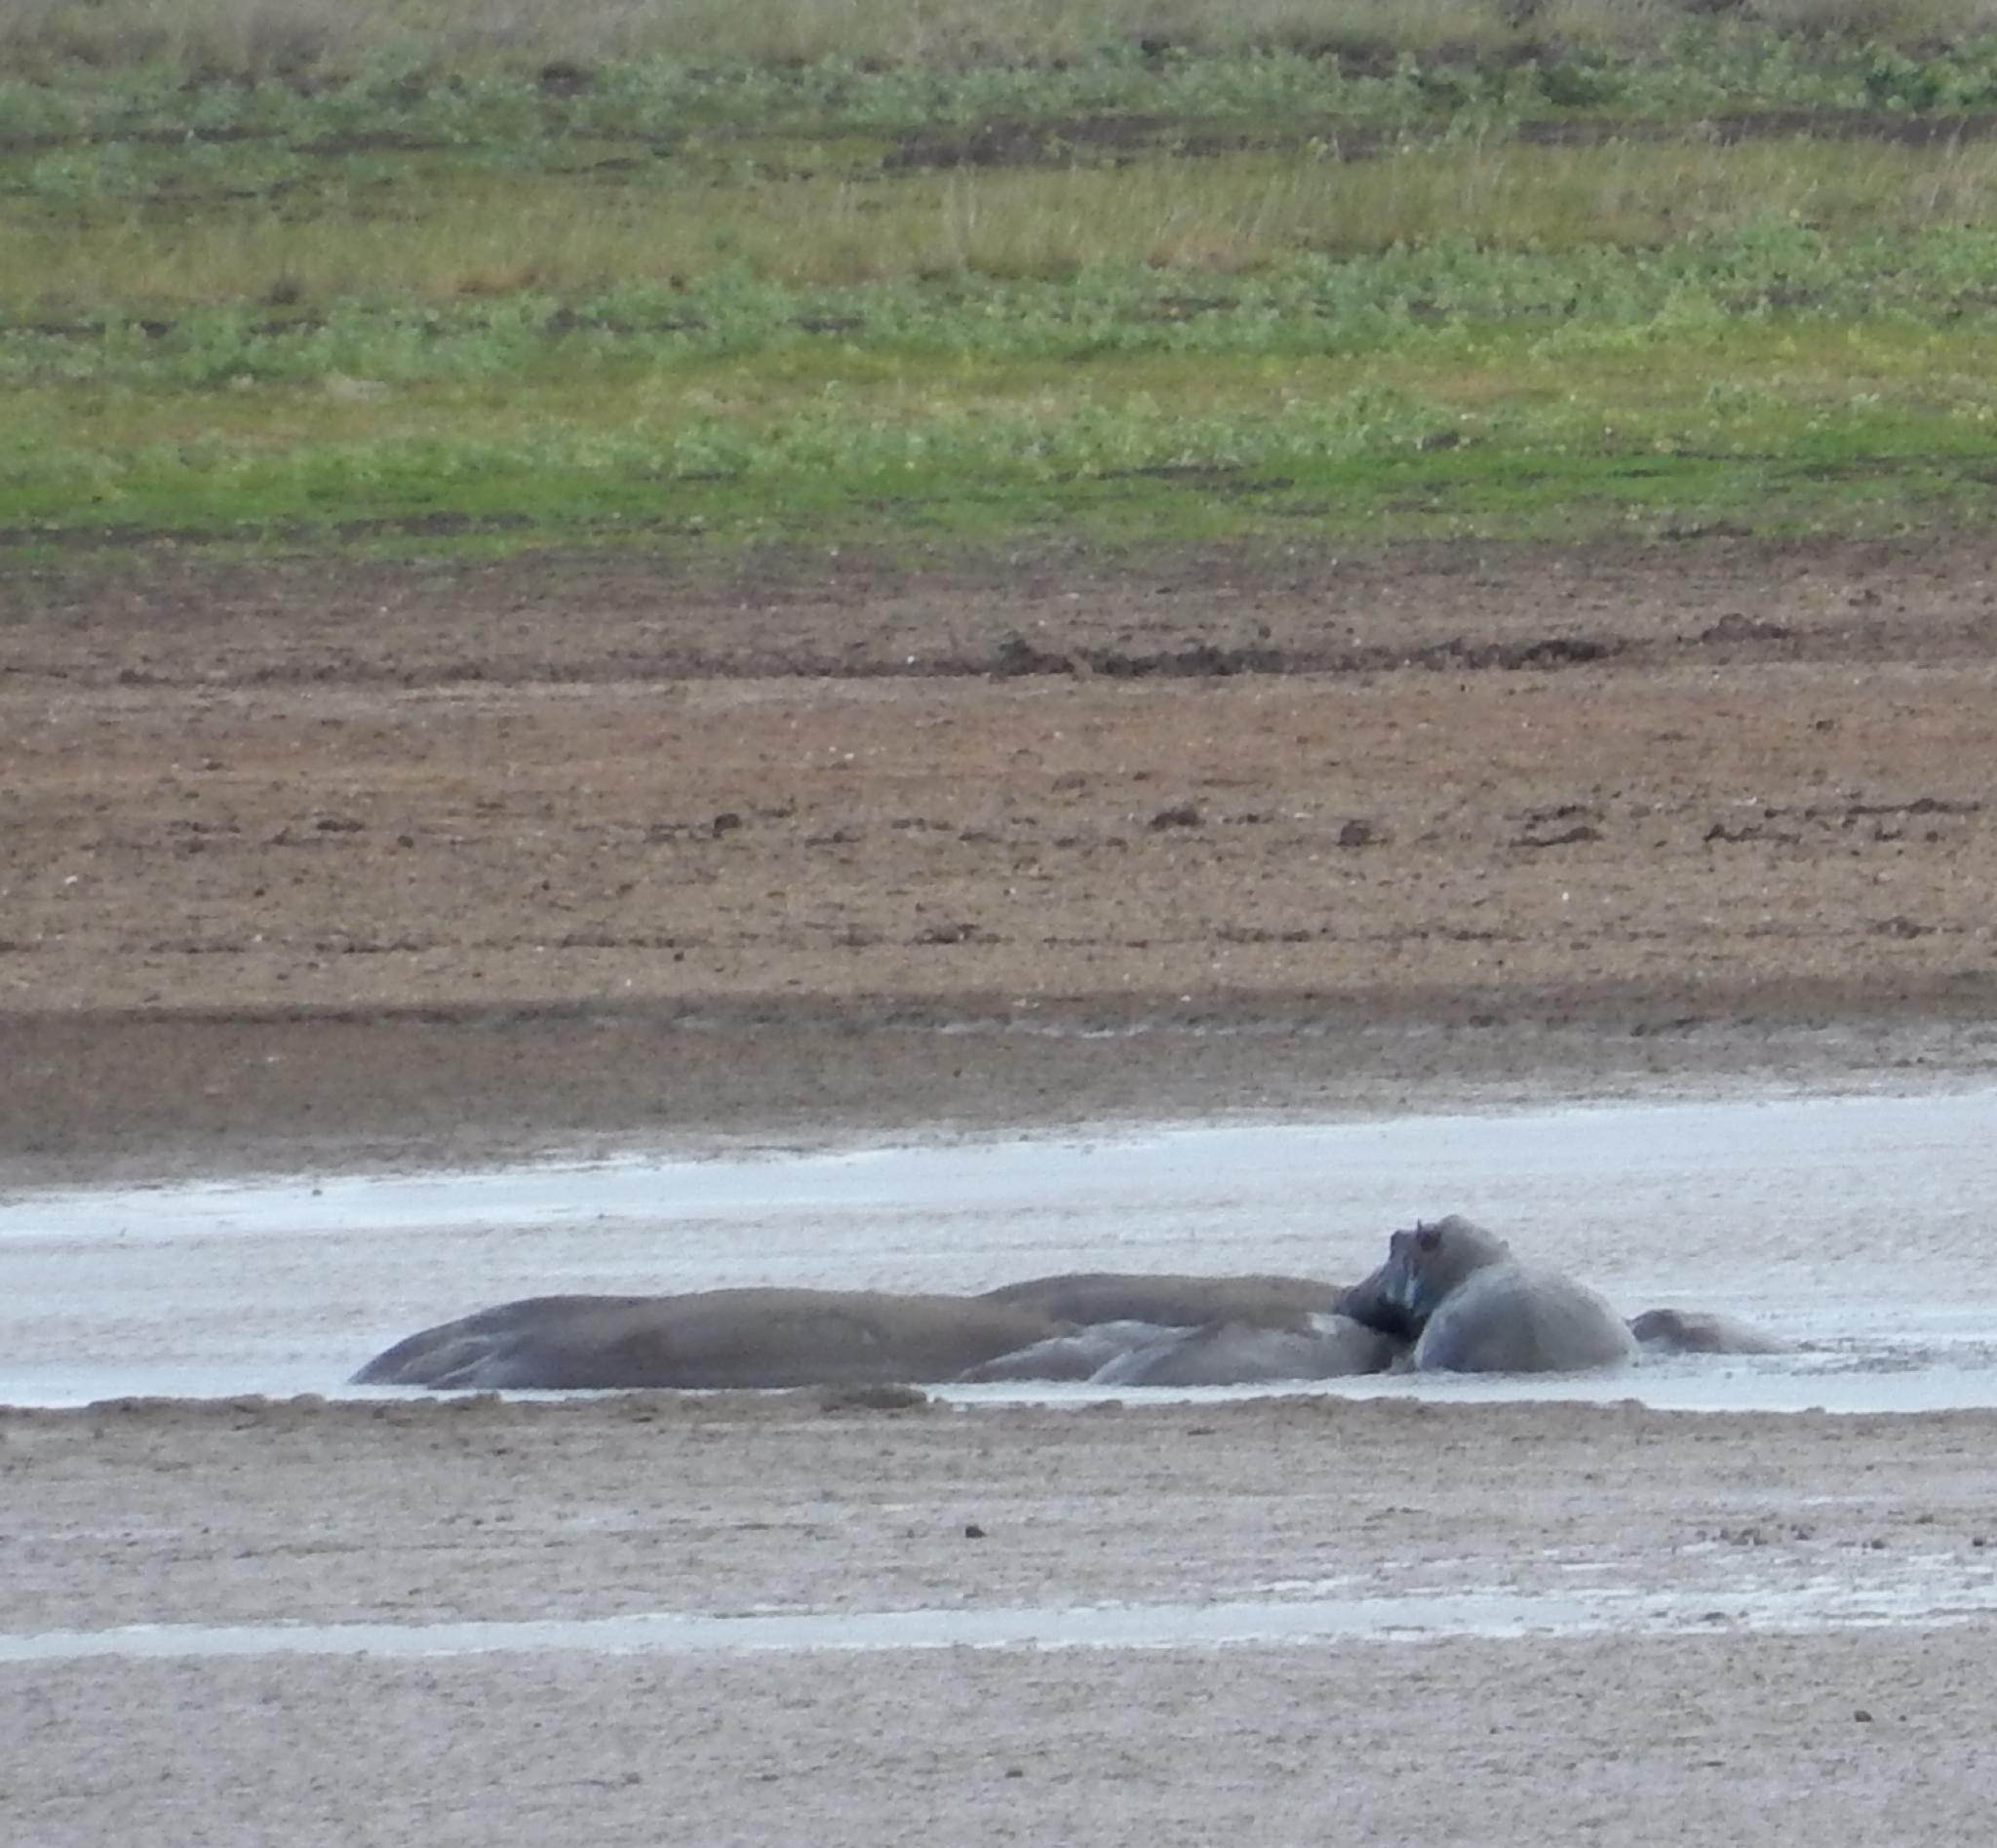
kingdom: Animalia
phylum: Chordata
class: Mammalia
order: Artiodactyla
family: Hippopotamidae
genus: Hippopotamus
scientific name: Hippopotamus amphibius
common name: Common hippopotamus
